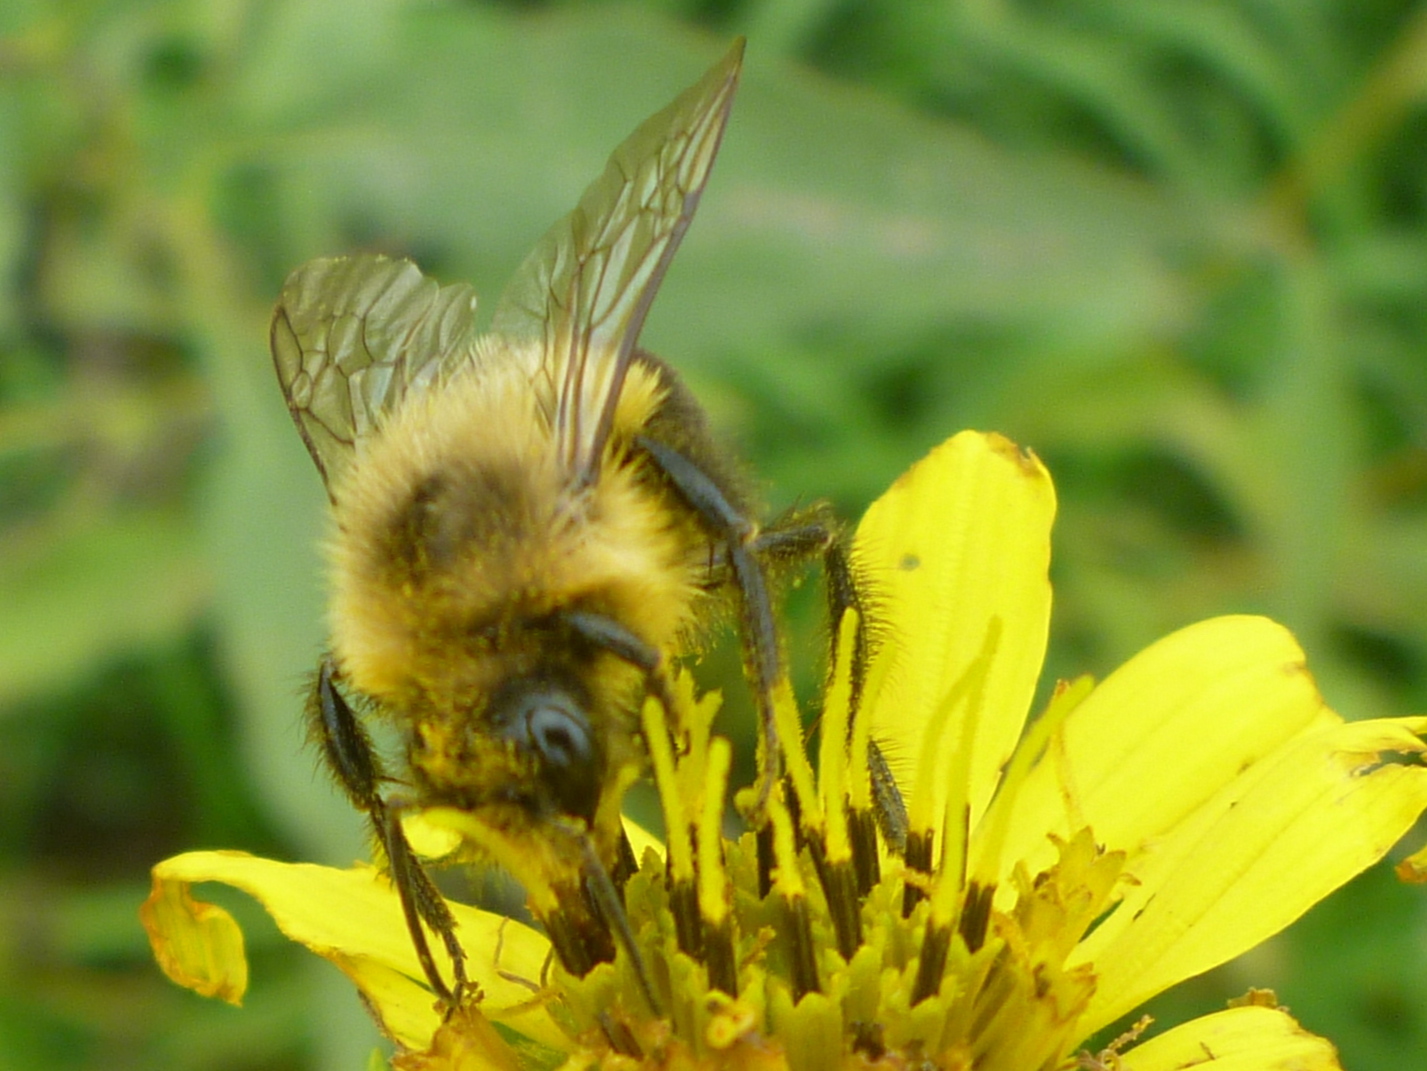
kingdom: Animalia
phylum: Arthropoda
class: Insecta
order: Hymenoptera
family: Apidae
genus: Bombus
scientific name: Bombus impatiens
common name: Common eastern bumble bee
